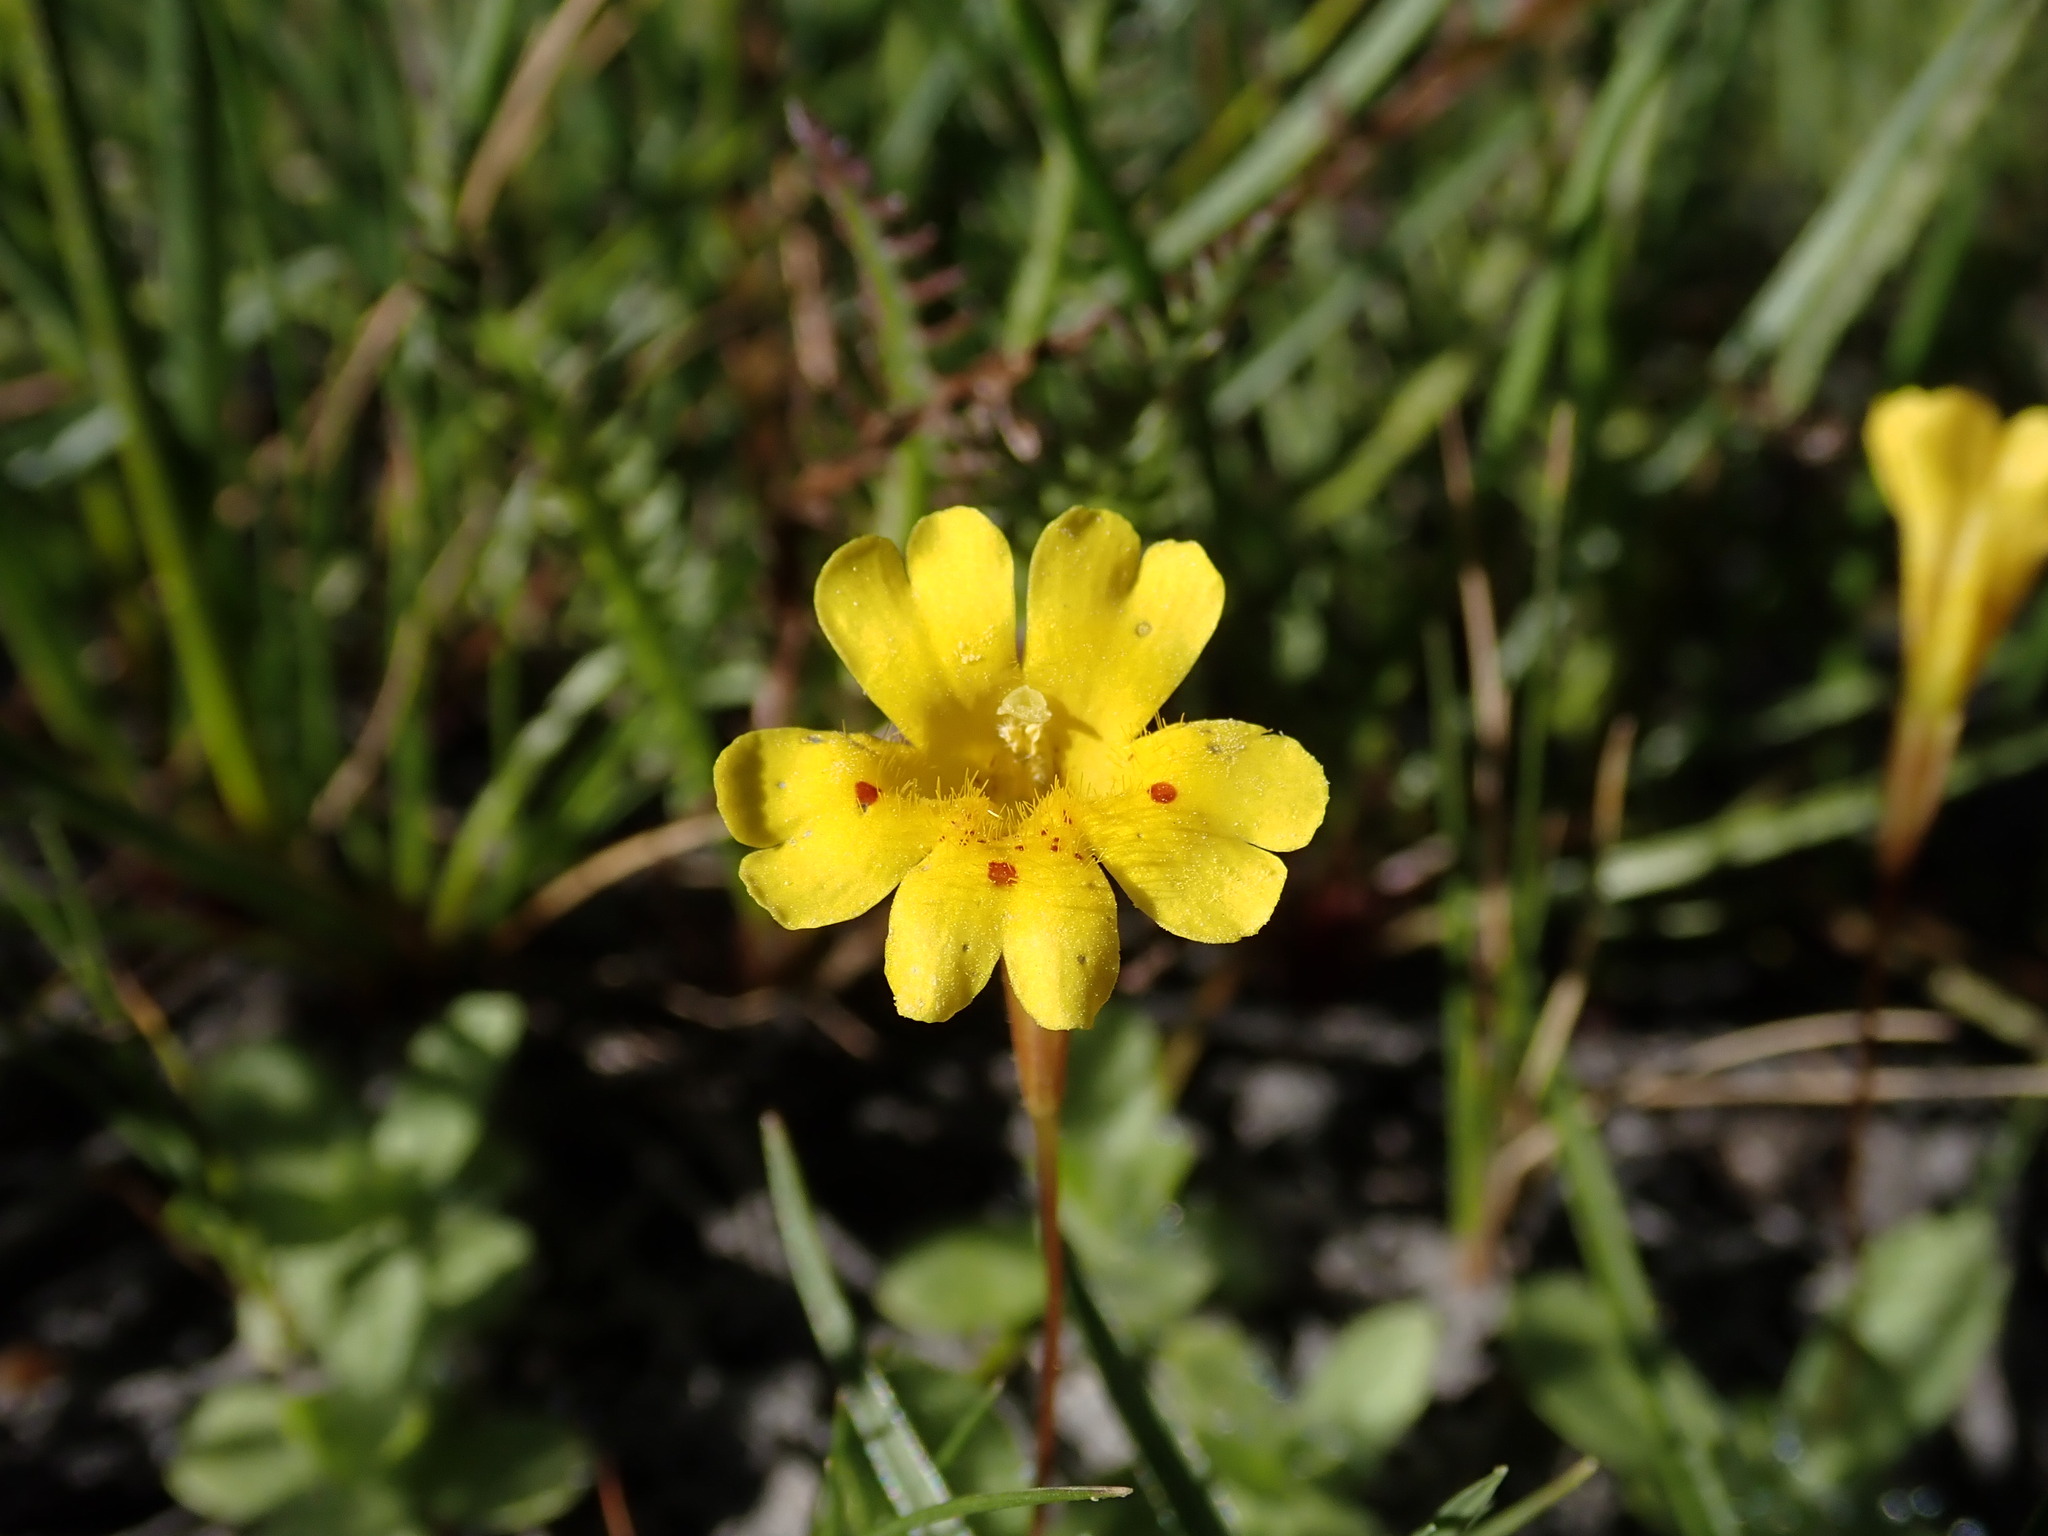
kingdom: Plantae
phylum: Tracheophyta
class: Magnoliopsida
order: Lamiales
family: Phrymaceae
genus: Erythranthe
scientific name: Erythranthe primuloides
